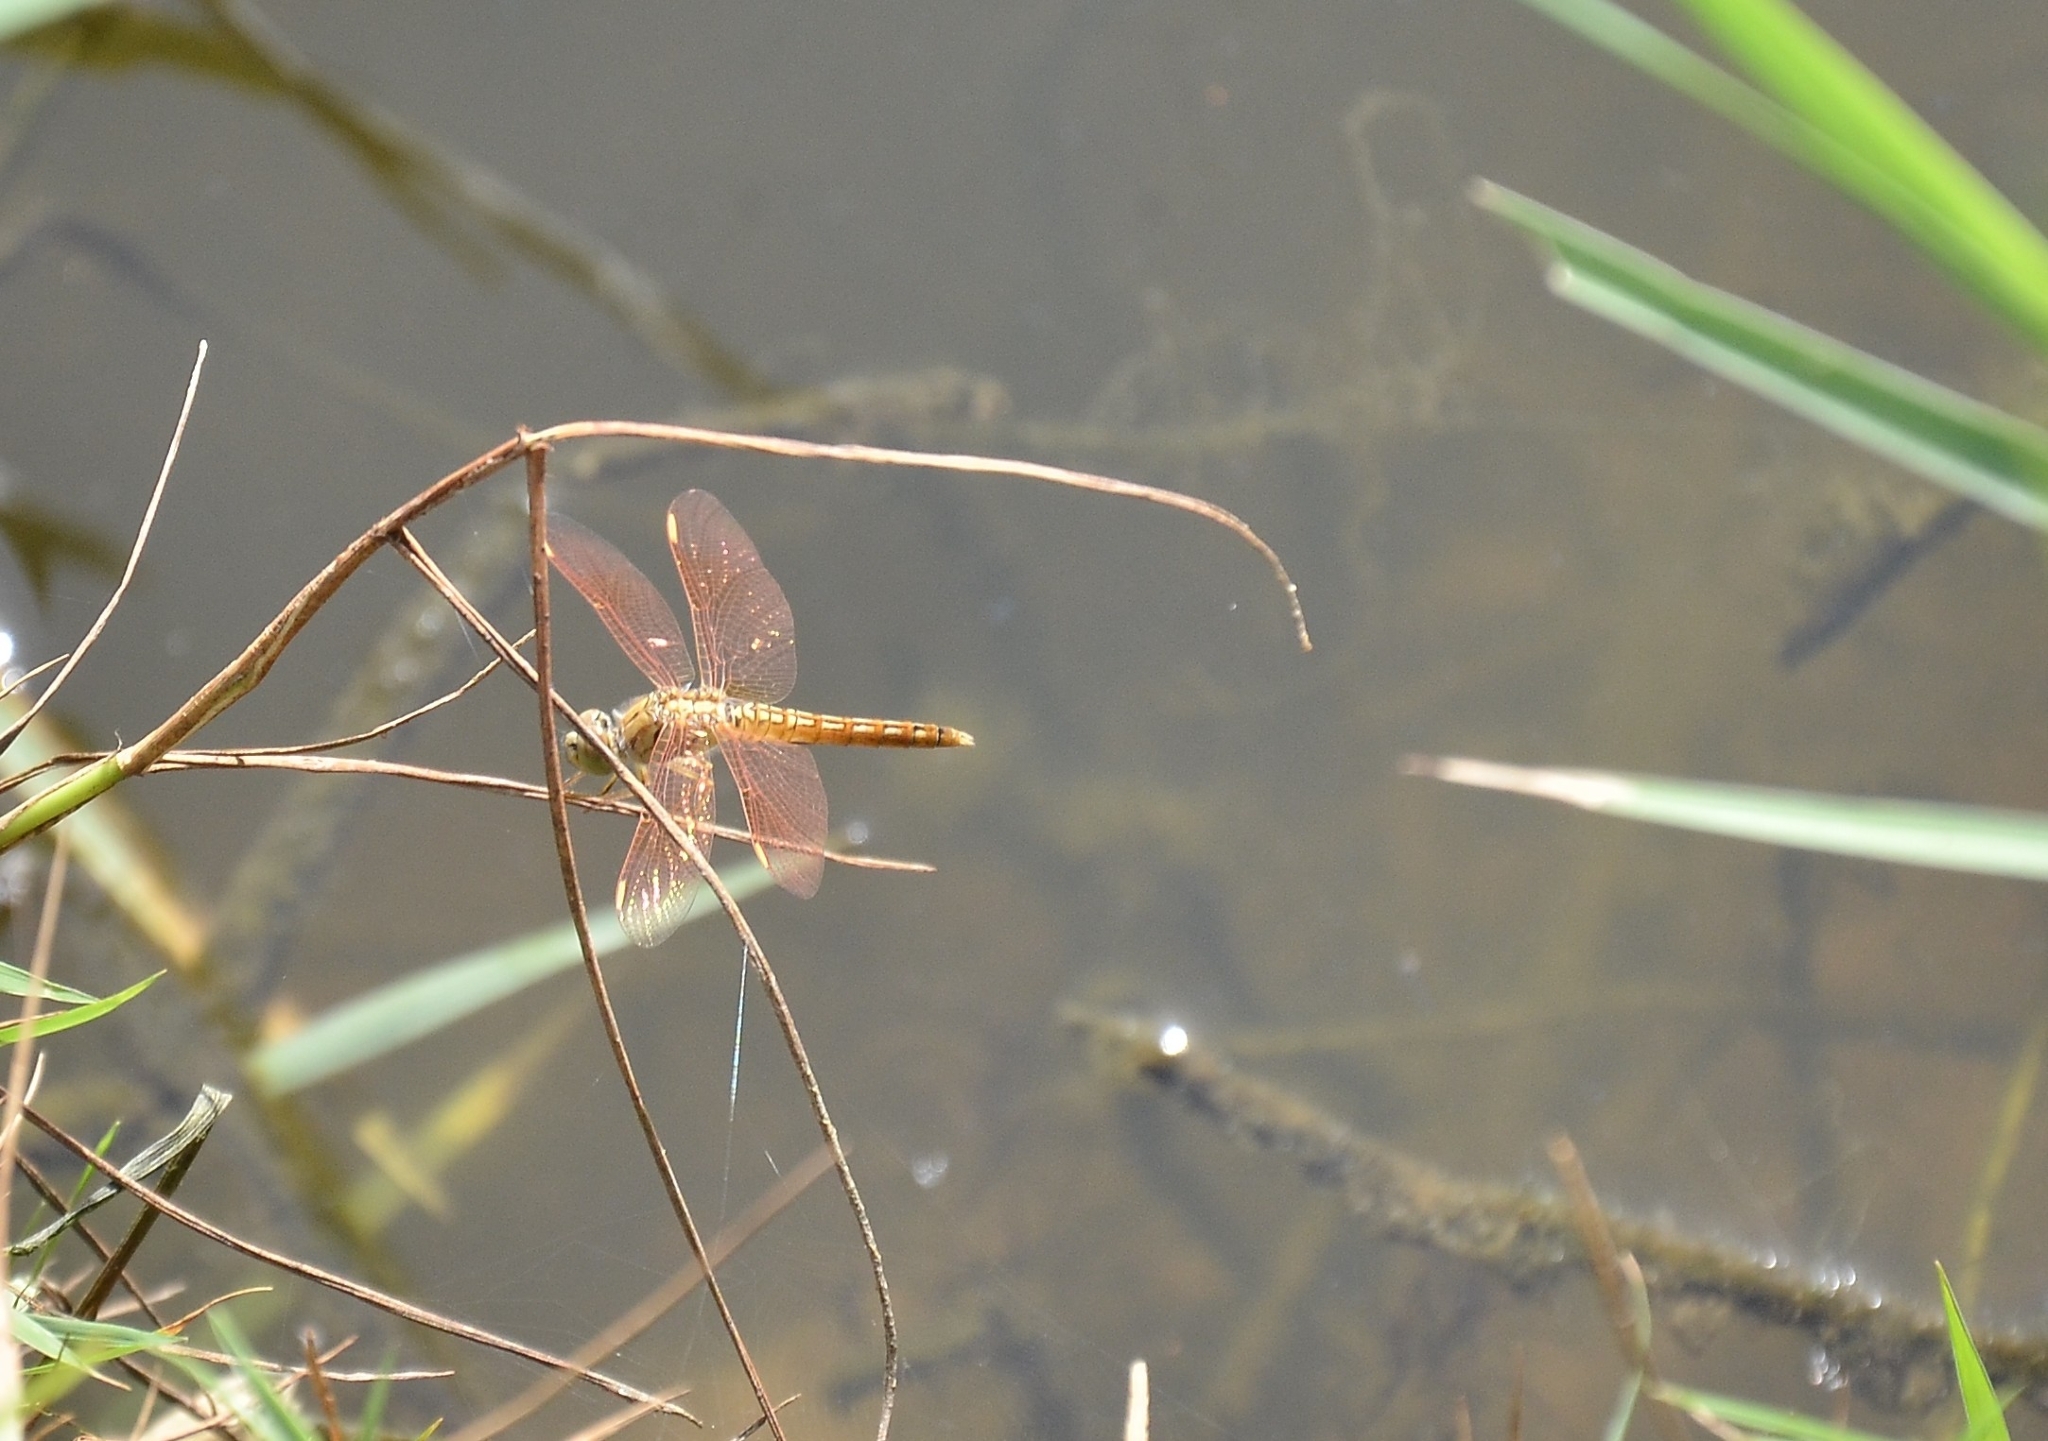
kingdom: Animalia
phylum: Arthropoda
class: Insecta
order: Odonata
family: Libellulidae
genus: Brachythemis
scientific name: Brachythemis contaminata
